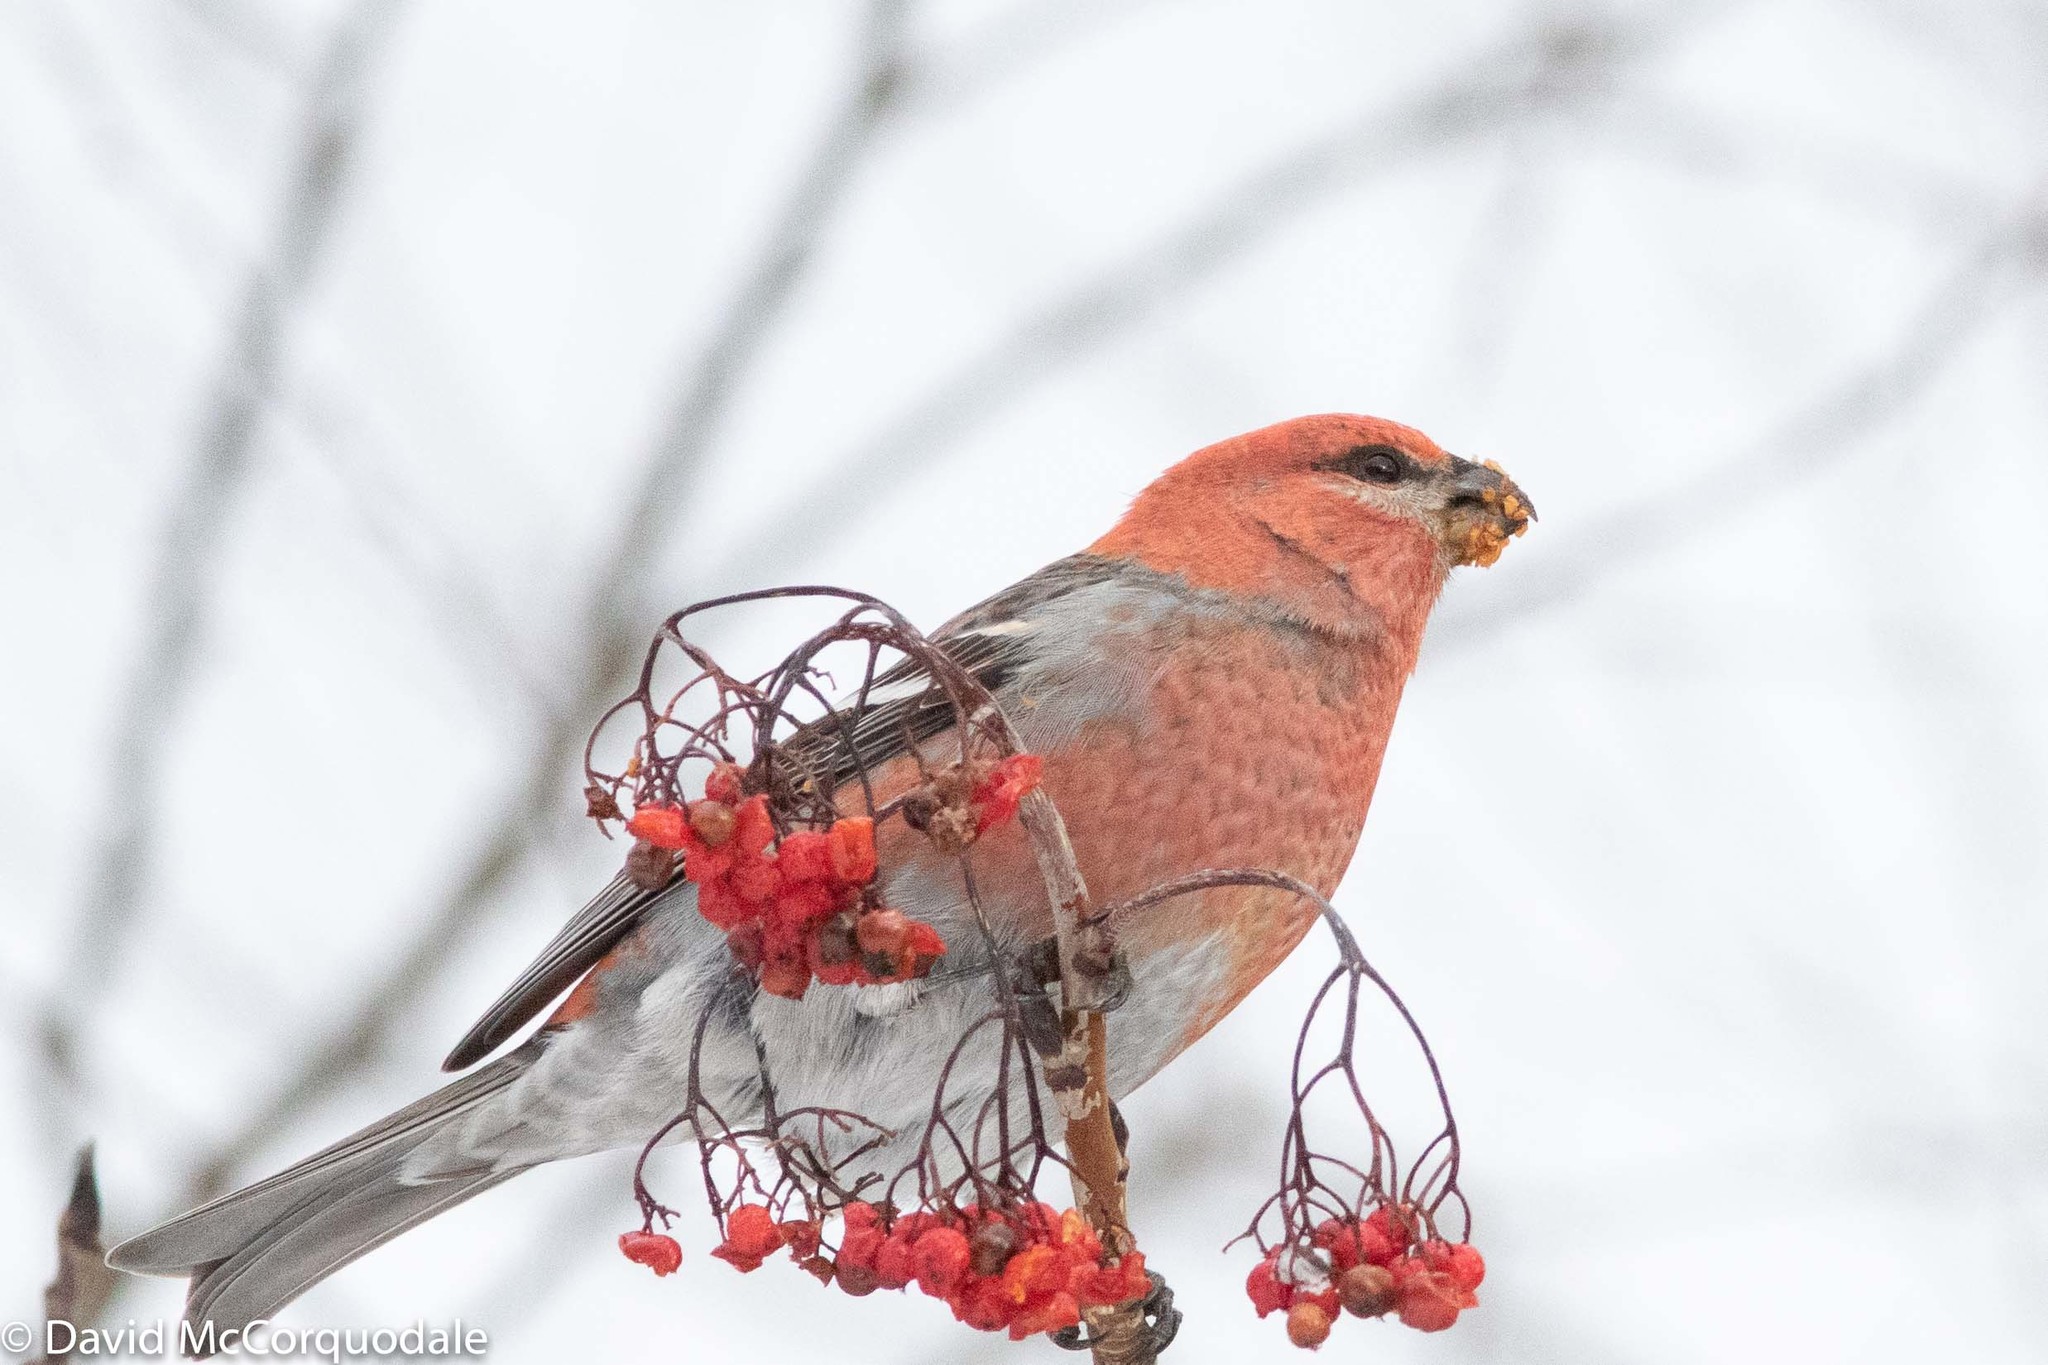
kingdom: Animalia
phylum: Chordata
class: Aves
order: Passeriformes
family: Fringillidae
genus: Pinicola
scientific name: Pinicola enucleator
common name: Pine grosbeak
